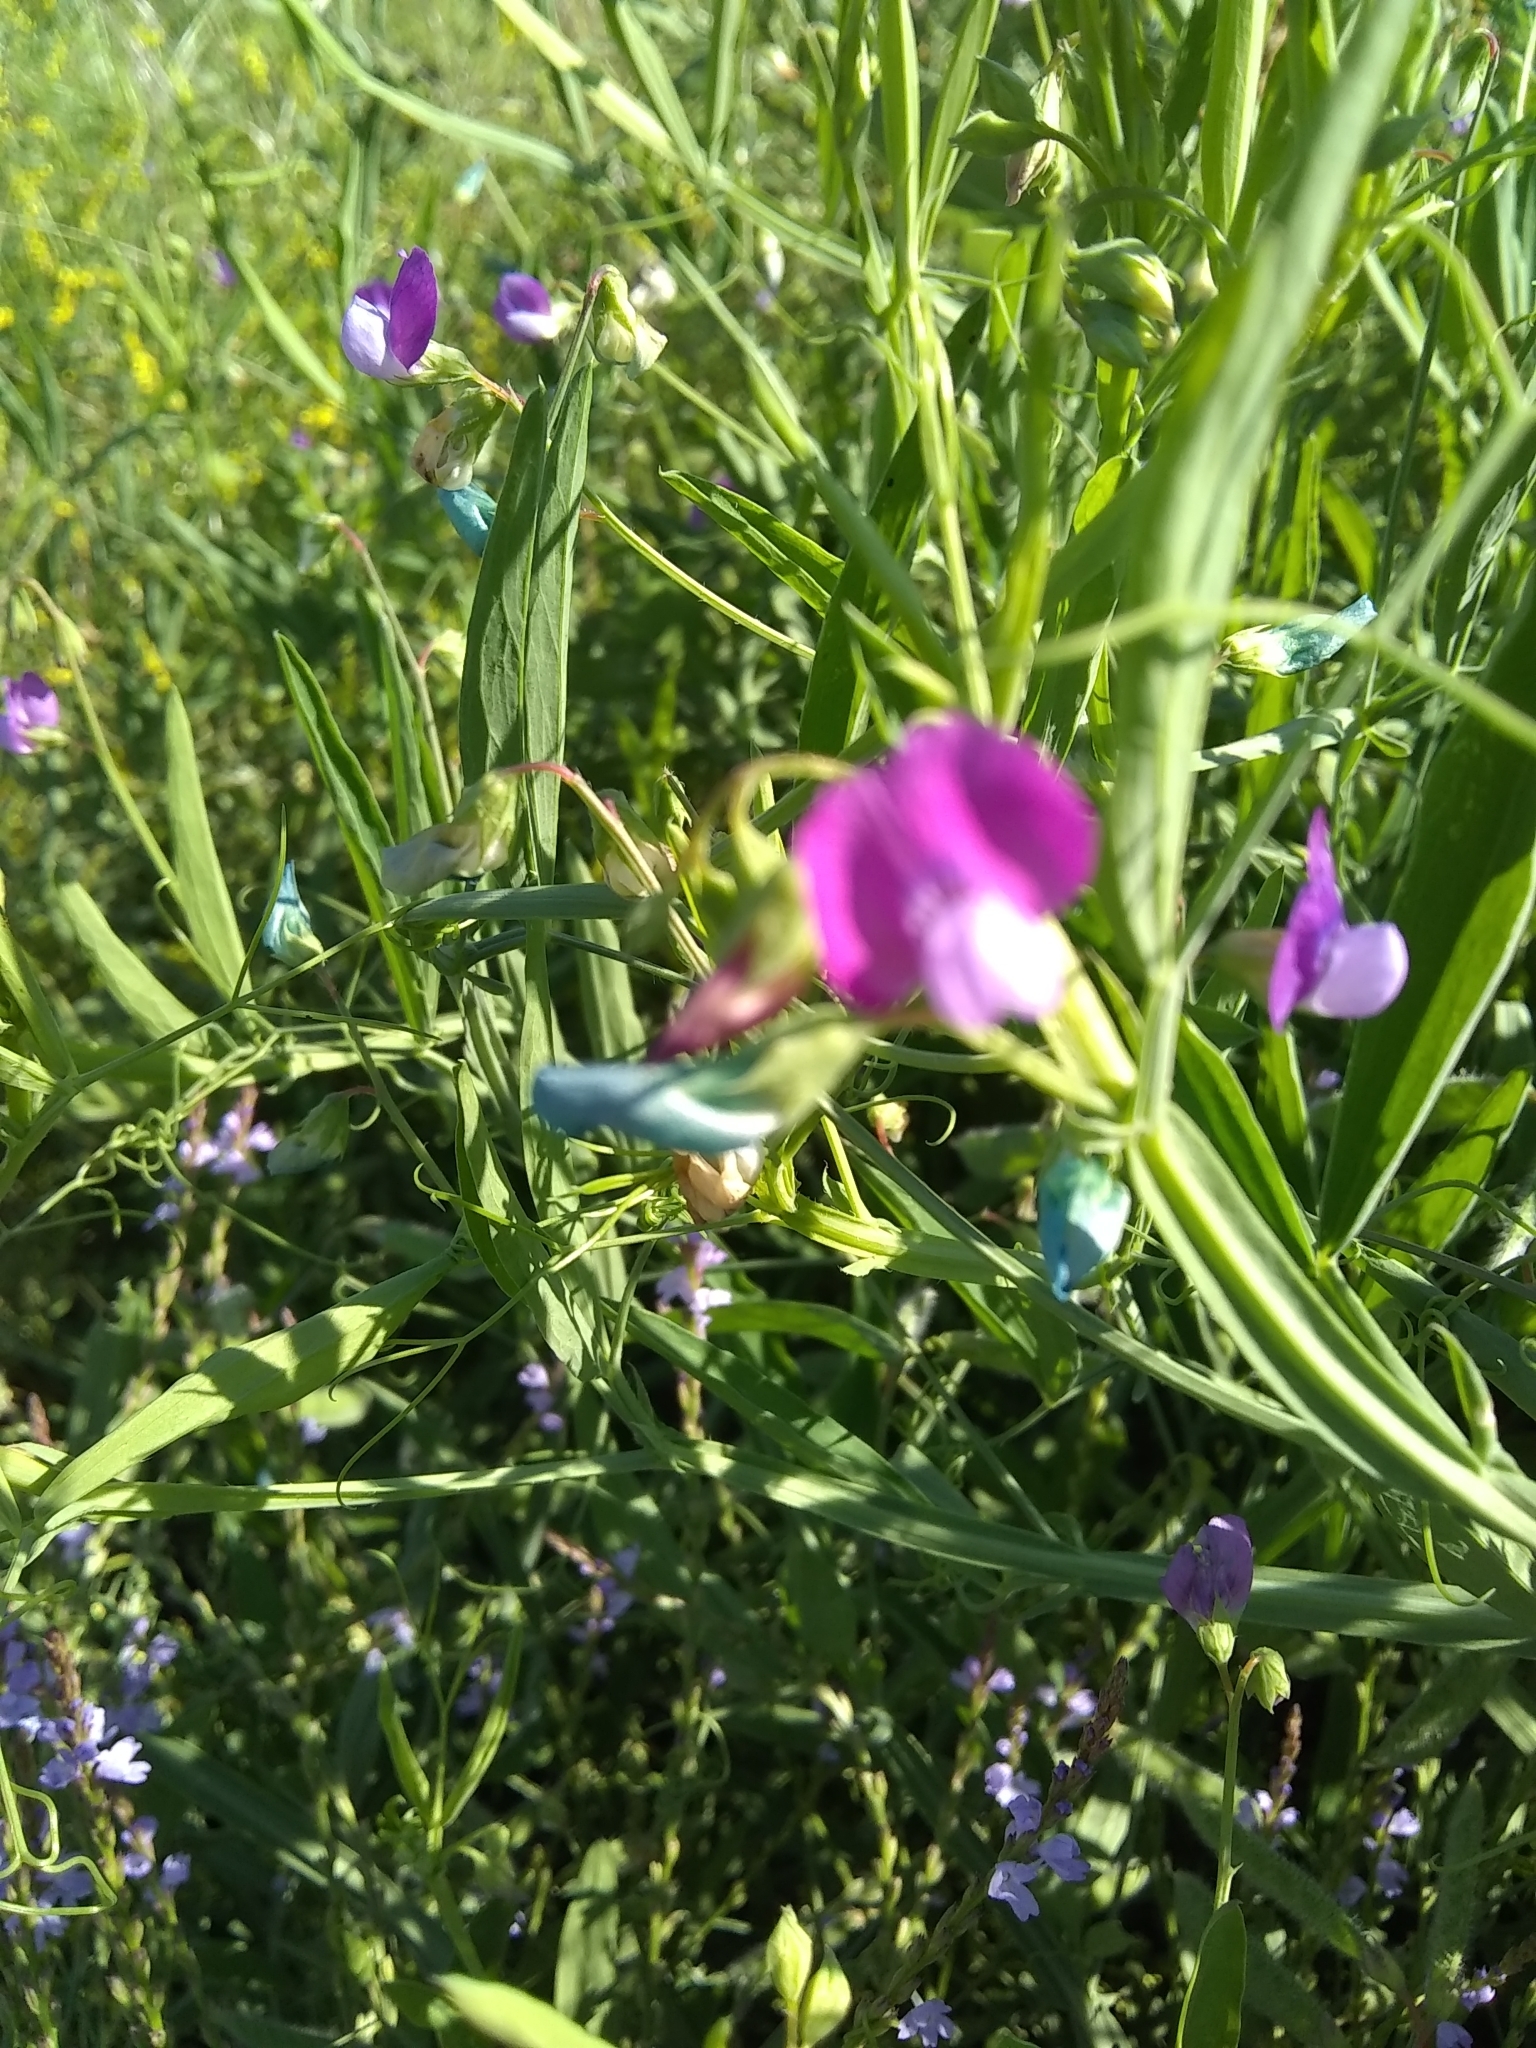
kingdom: Plantae
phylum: Tracheophyta
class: Magnoliopsida
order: Fabales
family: Fabaceae
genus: Lathyrus
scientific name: Lathyrus hirsutus
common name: Hairy vetchling
